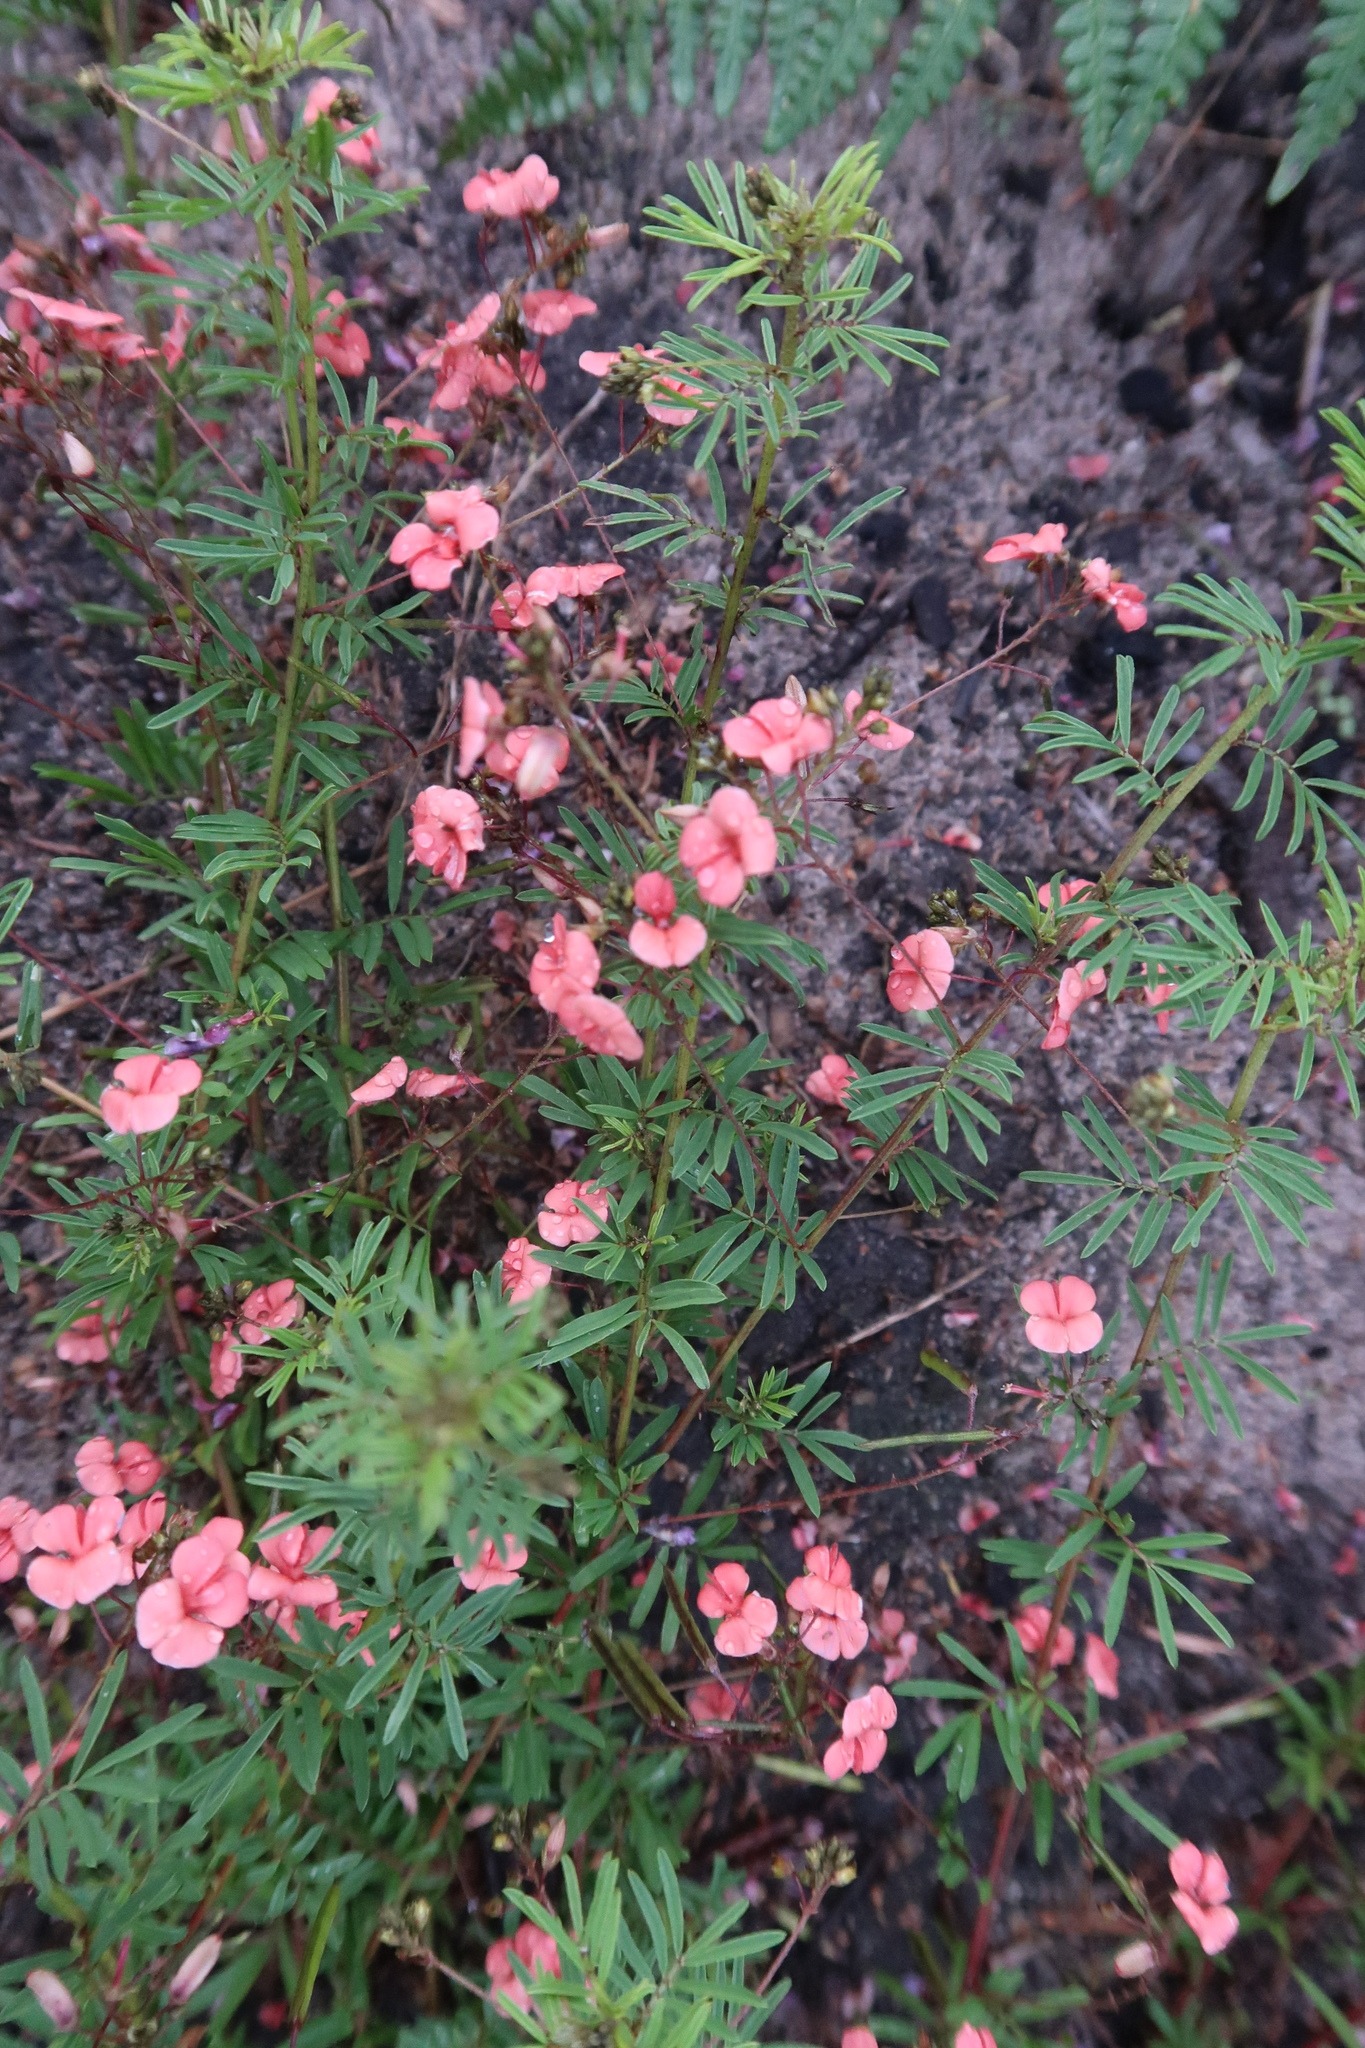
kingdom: Plantae
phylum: Tracheophyta
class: Magnoliopsida
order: Fabales
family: Fabaceae
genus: Indigofera
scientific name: Indigofera verrucosa
